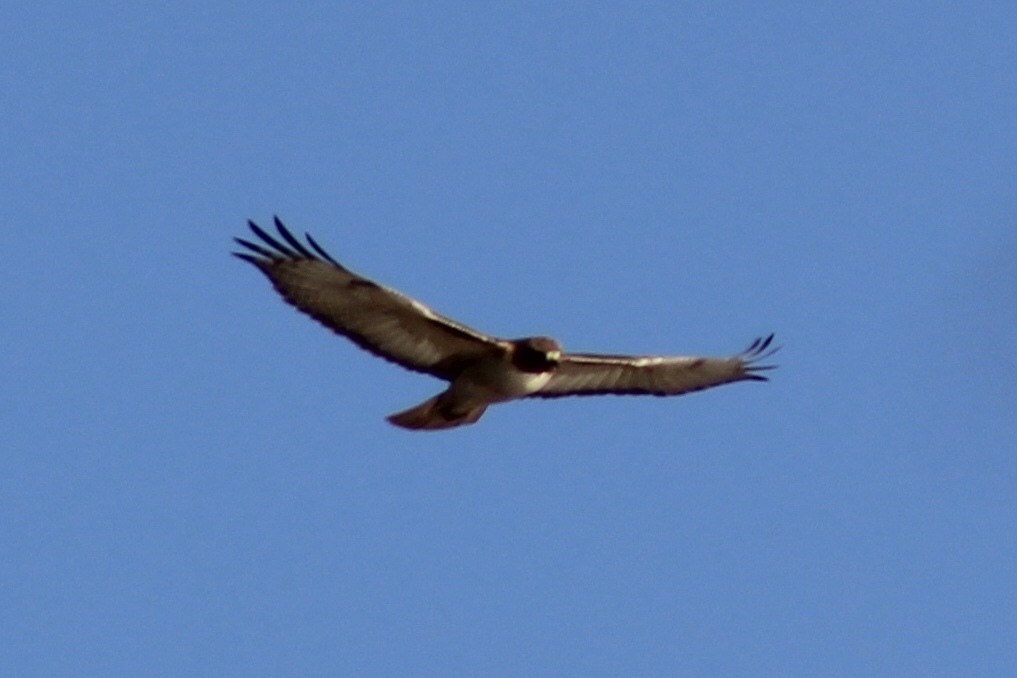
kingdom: Animalia
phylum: Chordata
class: Aves
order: Accipitriformes
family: Accipitridae
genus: Buteo
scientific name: Buteo jamaicensis
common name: Red-tailed hawk
